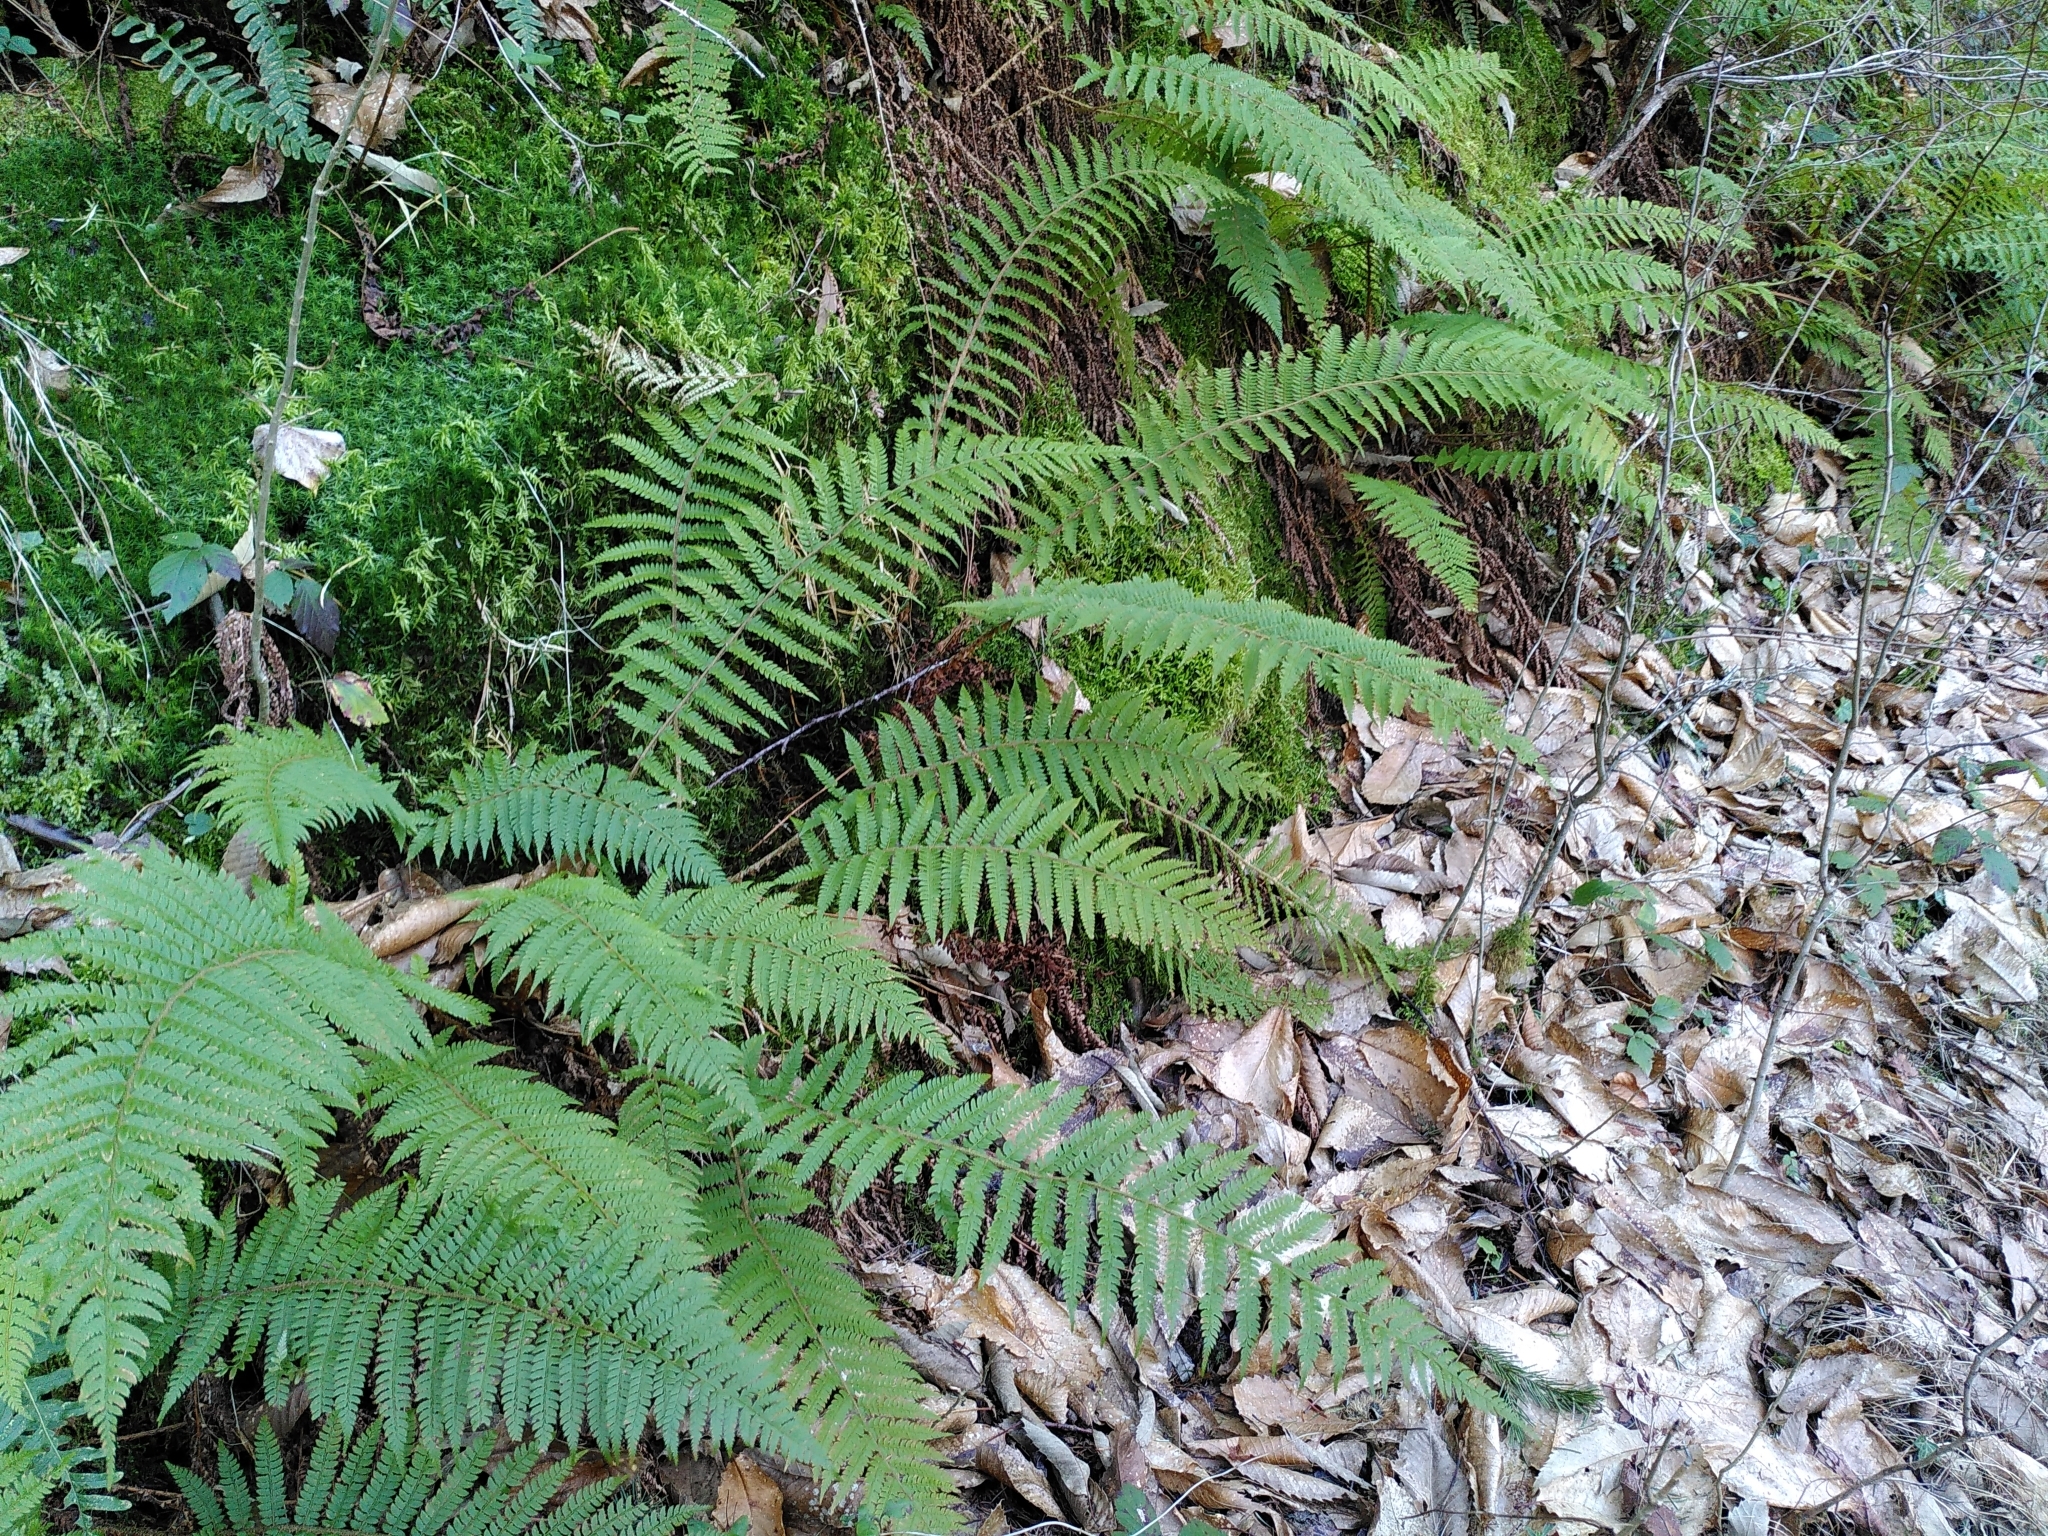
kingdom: Plantae
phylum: Tracheophyta
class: Polypodiopsida
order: Polypodiales
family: Dryopteridaceae
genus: Polystichum
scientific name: Polystichum setiferum
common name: Soft shield-fern
